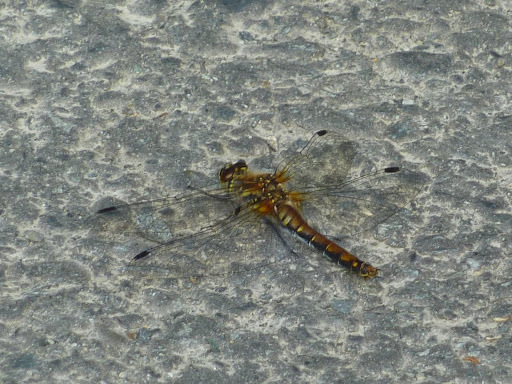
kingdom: Animalia
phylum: Arthropoda
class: Insecta
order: Odonata
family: Libellulidae
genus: Sympetrum
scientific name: Sympetrum danae
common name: Black darter
